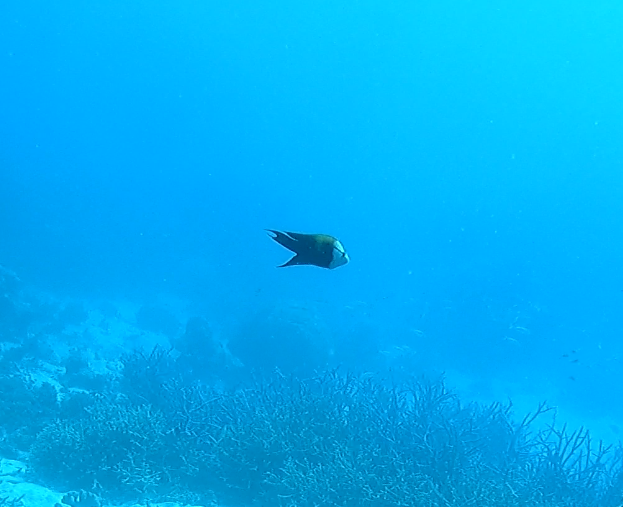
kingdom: Animalia
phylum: Chordata
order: Perciformes
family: Labridae
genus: Epibulus
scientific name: Epibulus insidiator
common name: Slingjaw wrasse
